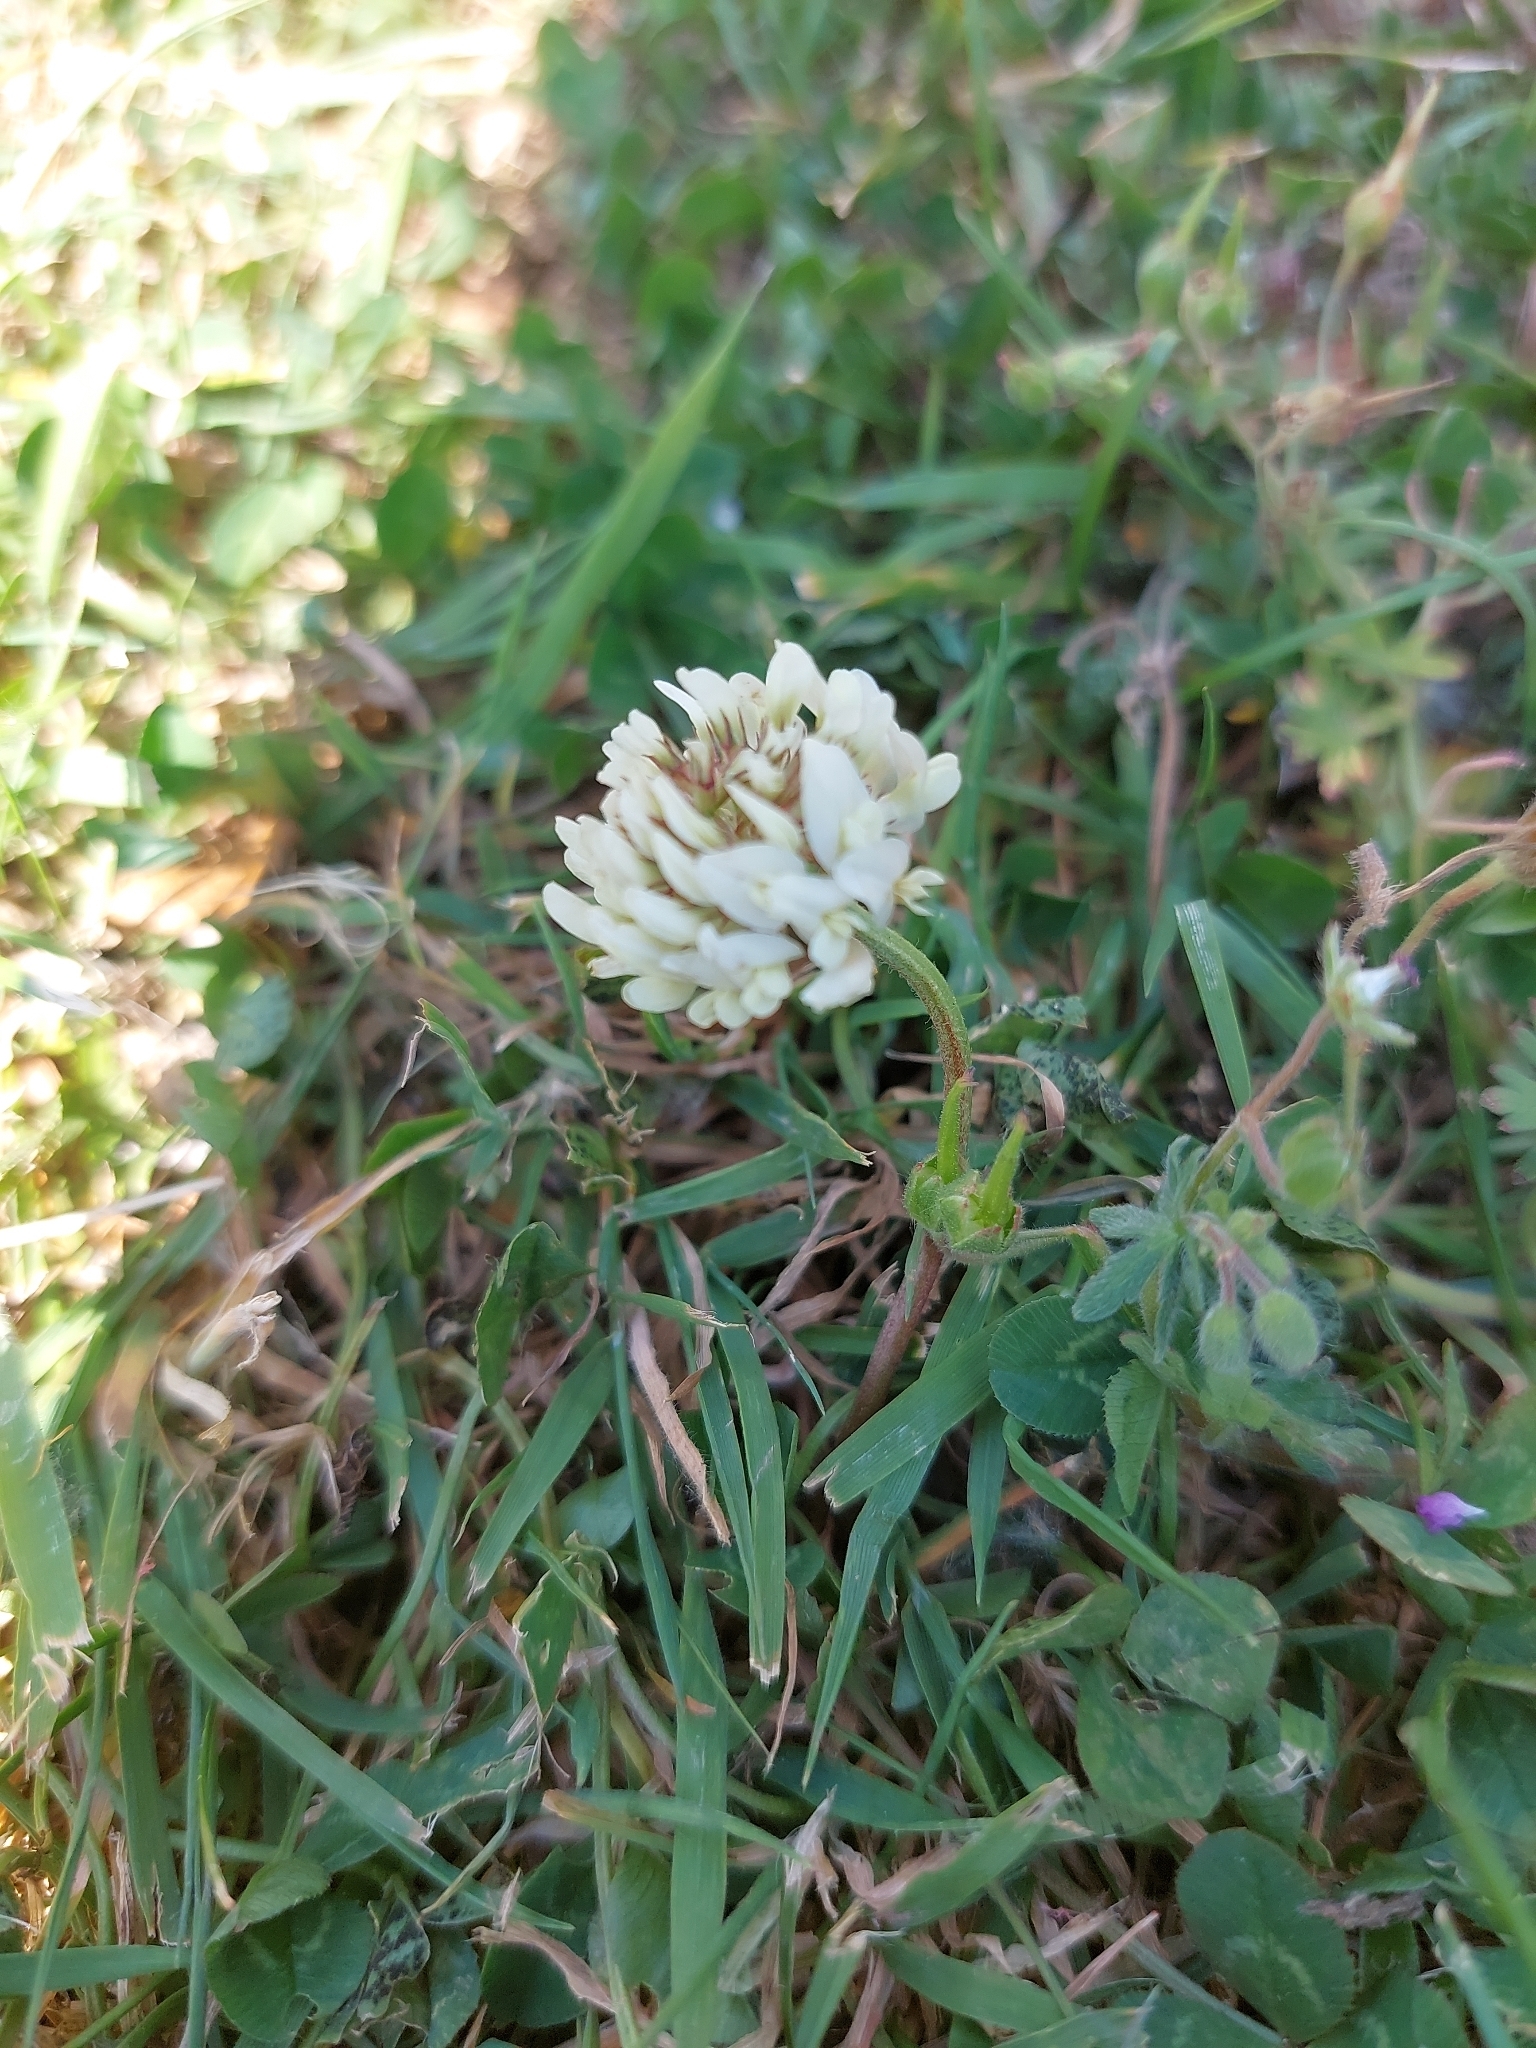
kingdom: Plantae
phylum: Tracheophyta
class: Magnoliopsida
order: Fabales
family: Fabaceae
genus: Trifolium
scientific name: Trifolium repens
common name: White clover
